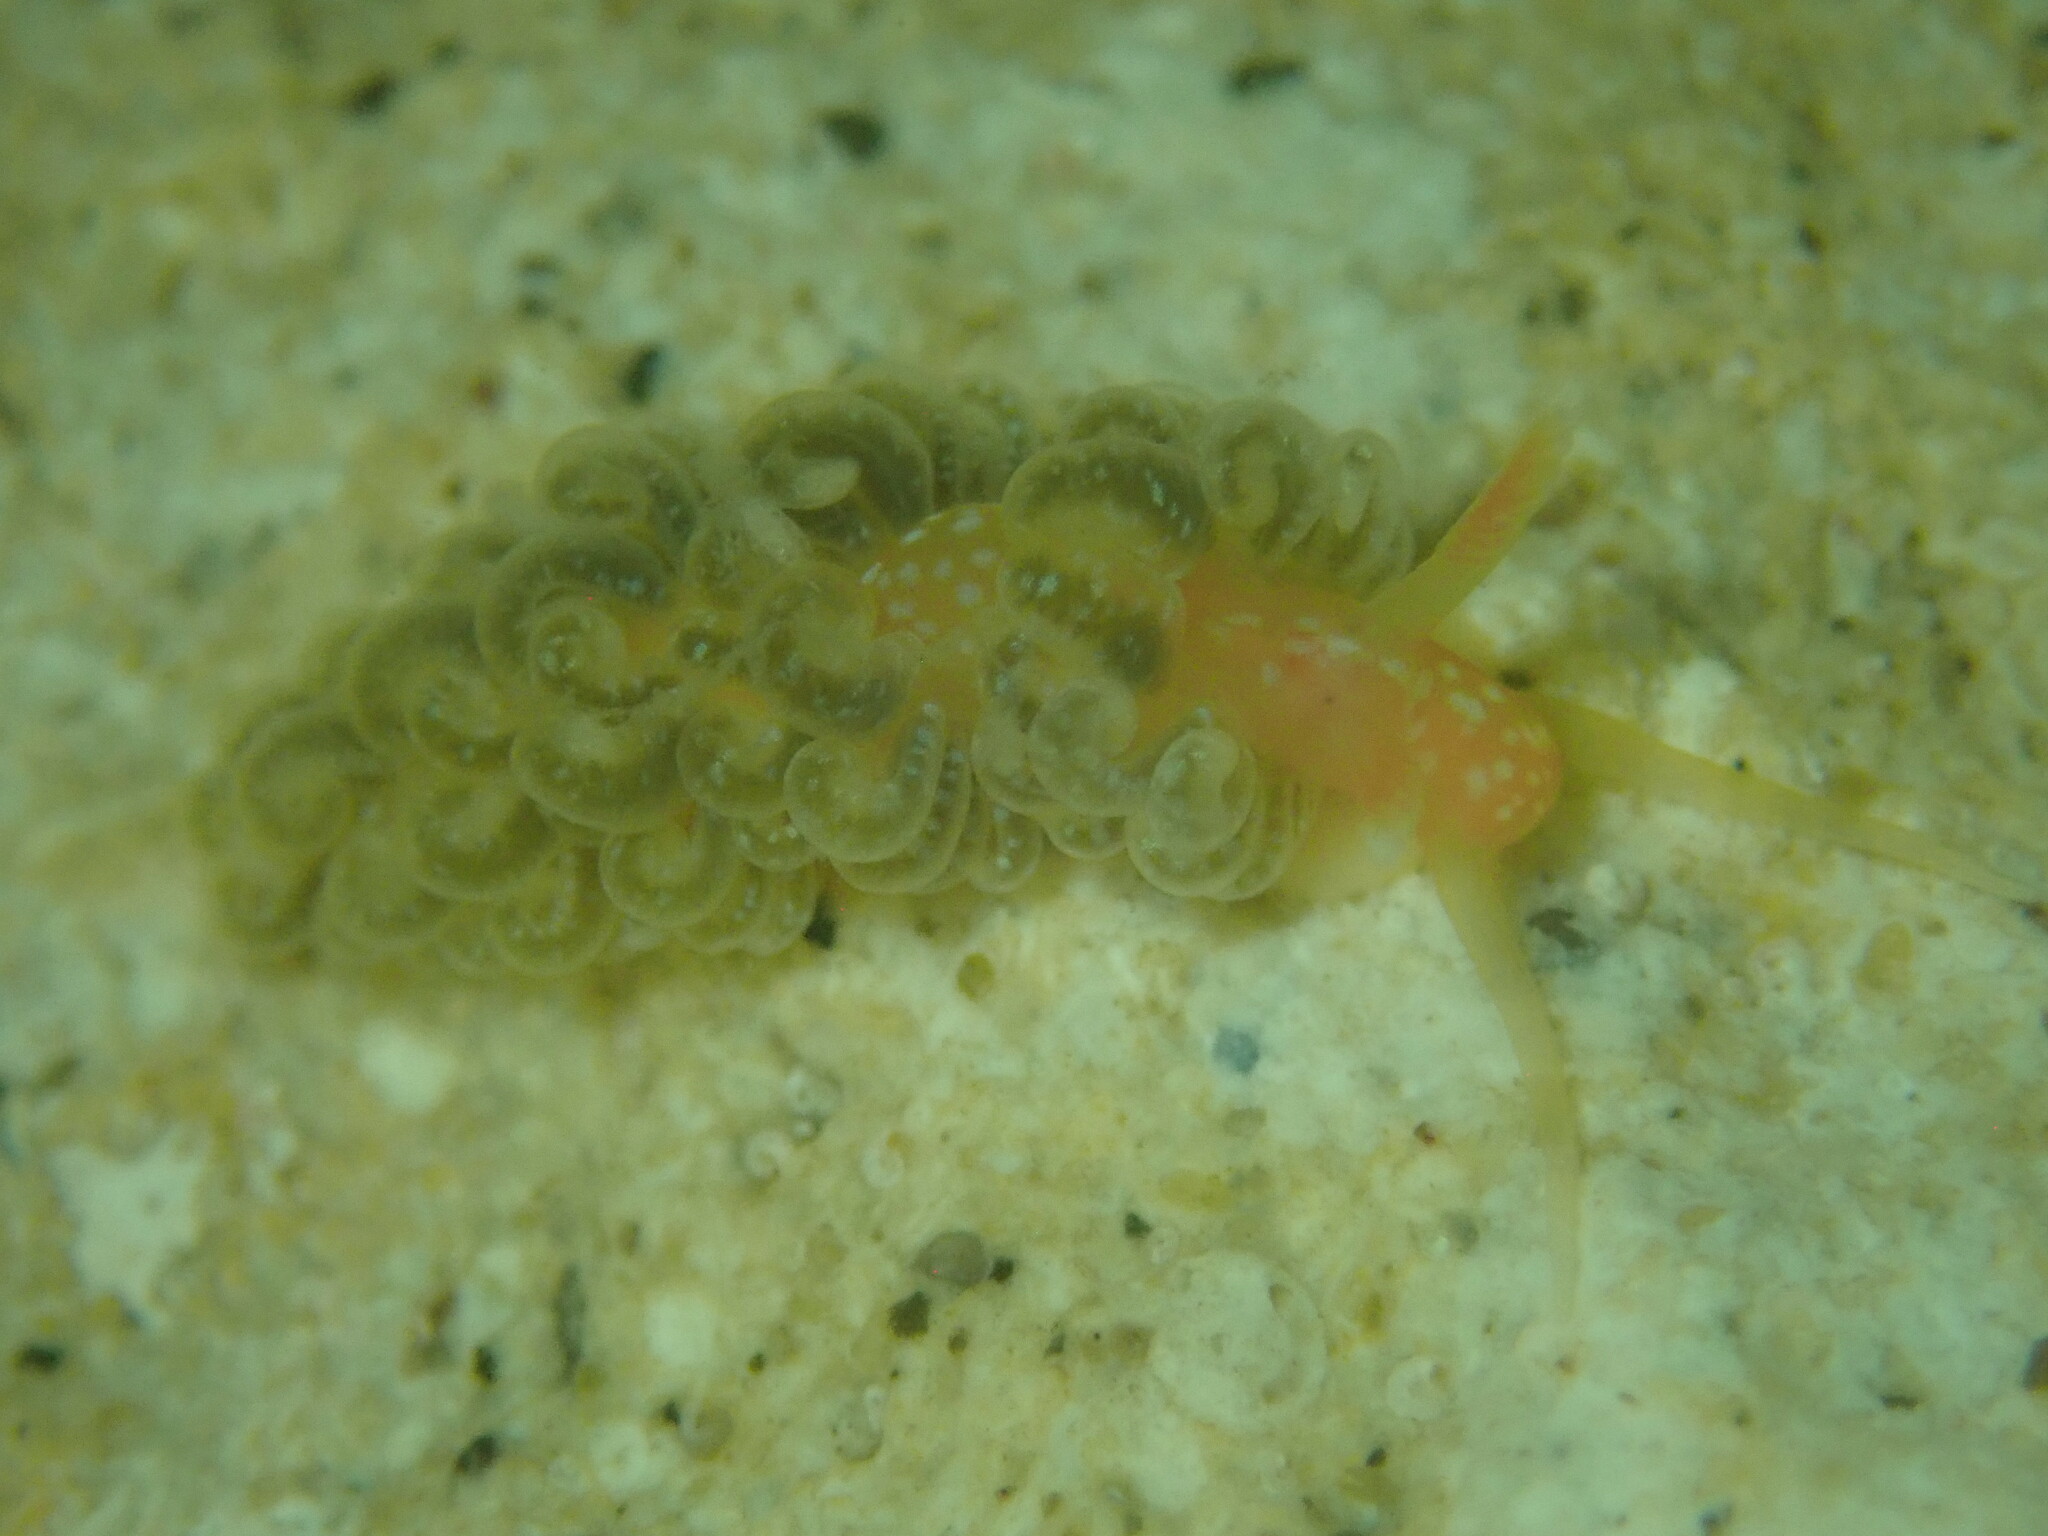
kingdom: Animalia
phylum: Mollusca
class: Gastropoda
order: Nudibranchia
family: Aeolidiidae
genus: Spurilla
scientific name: Spurilla braziliana
